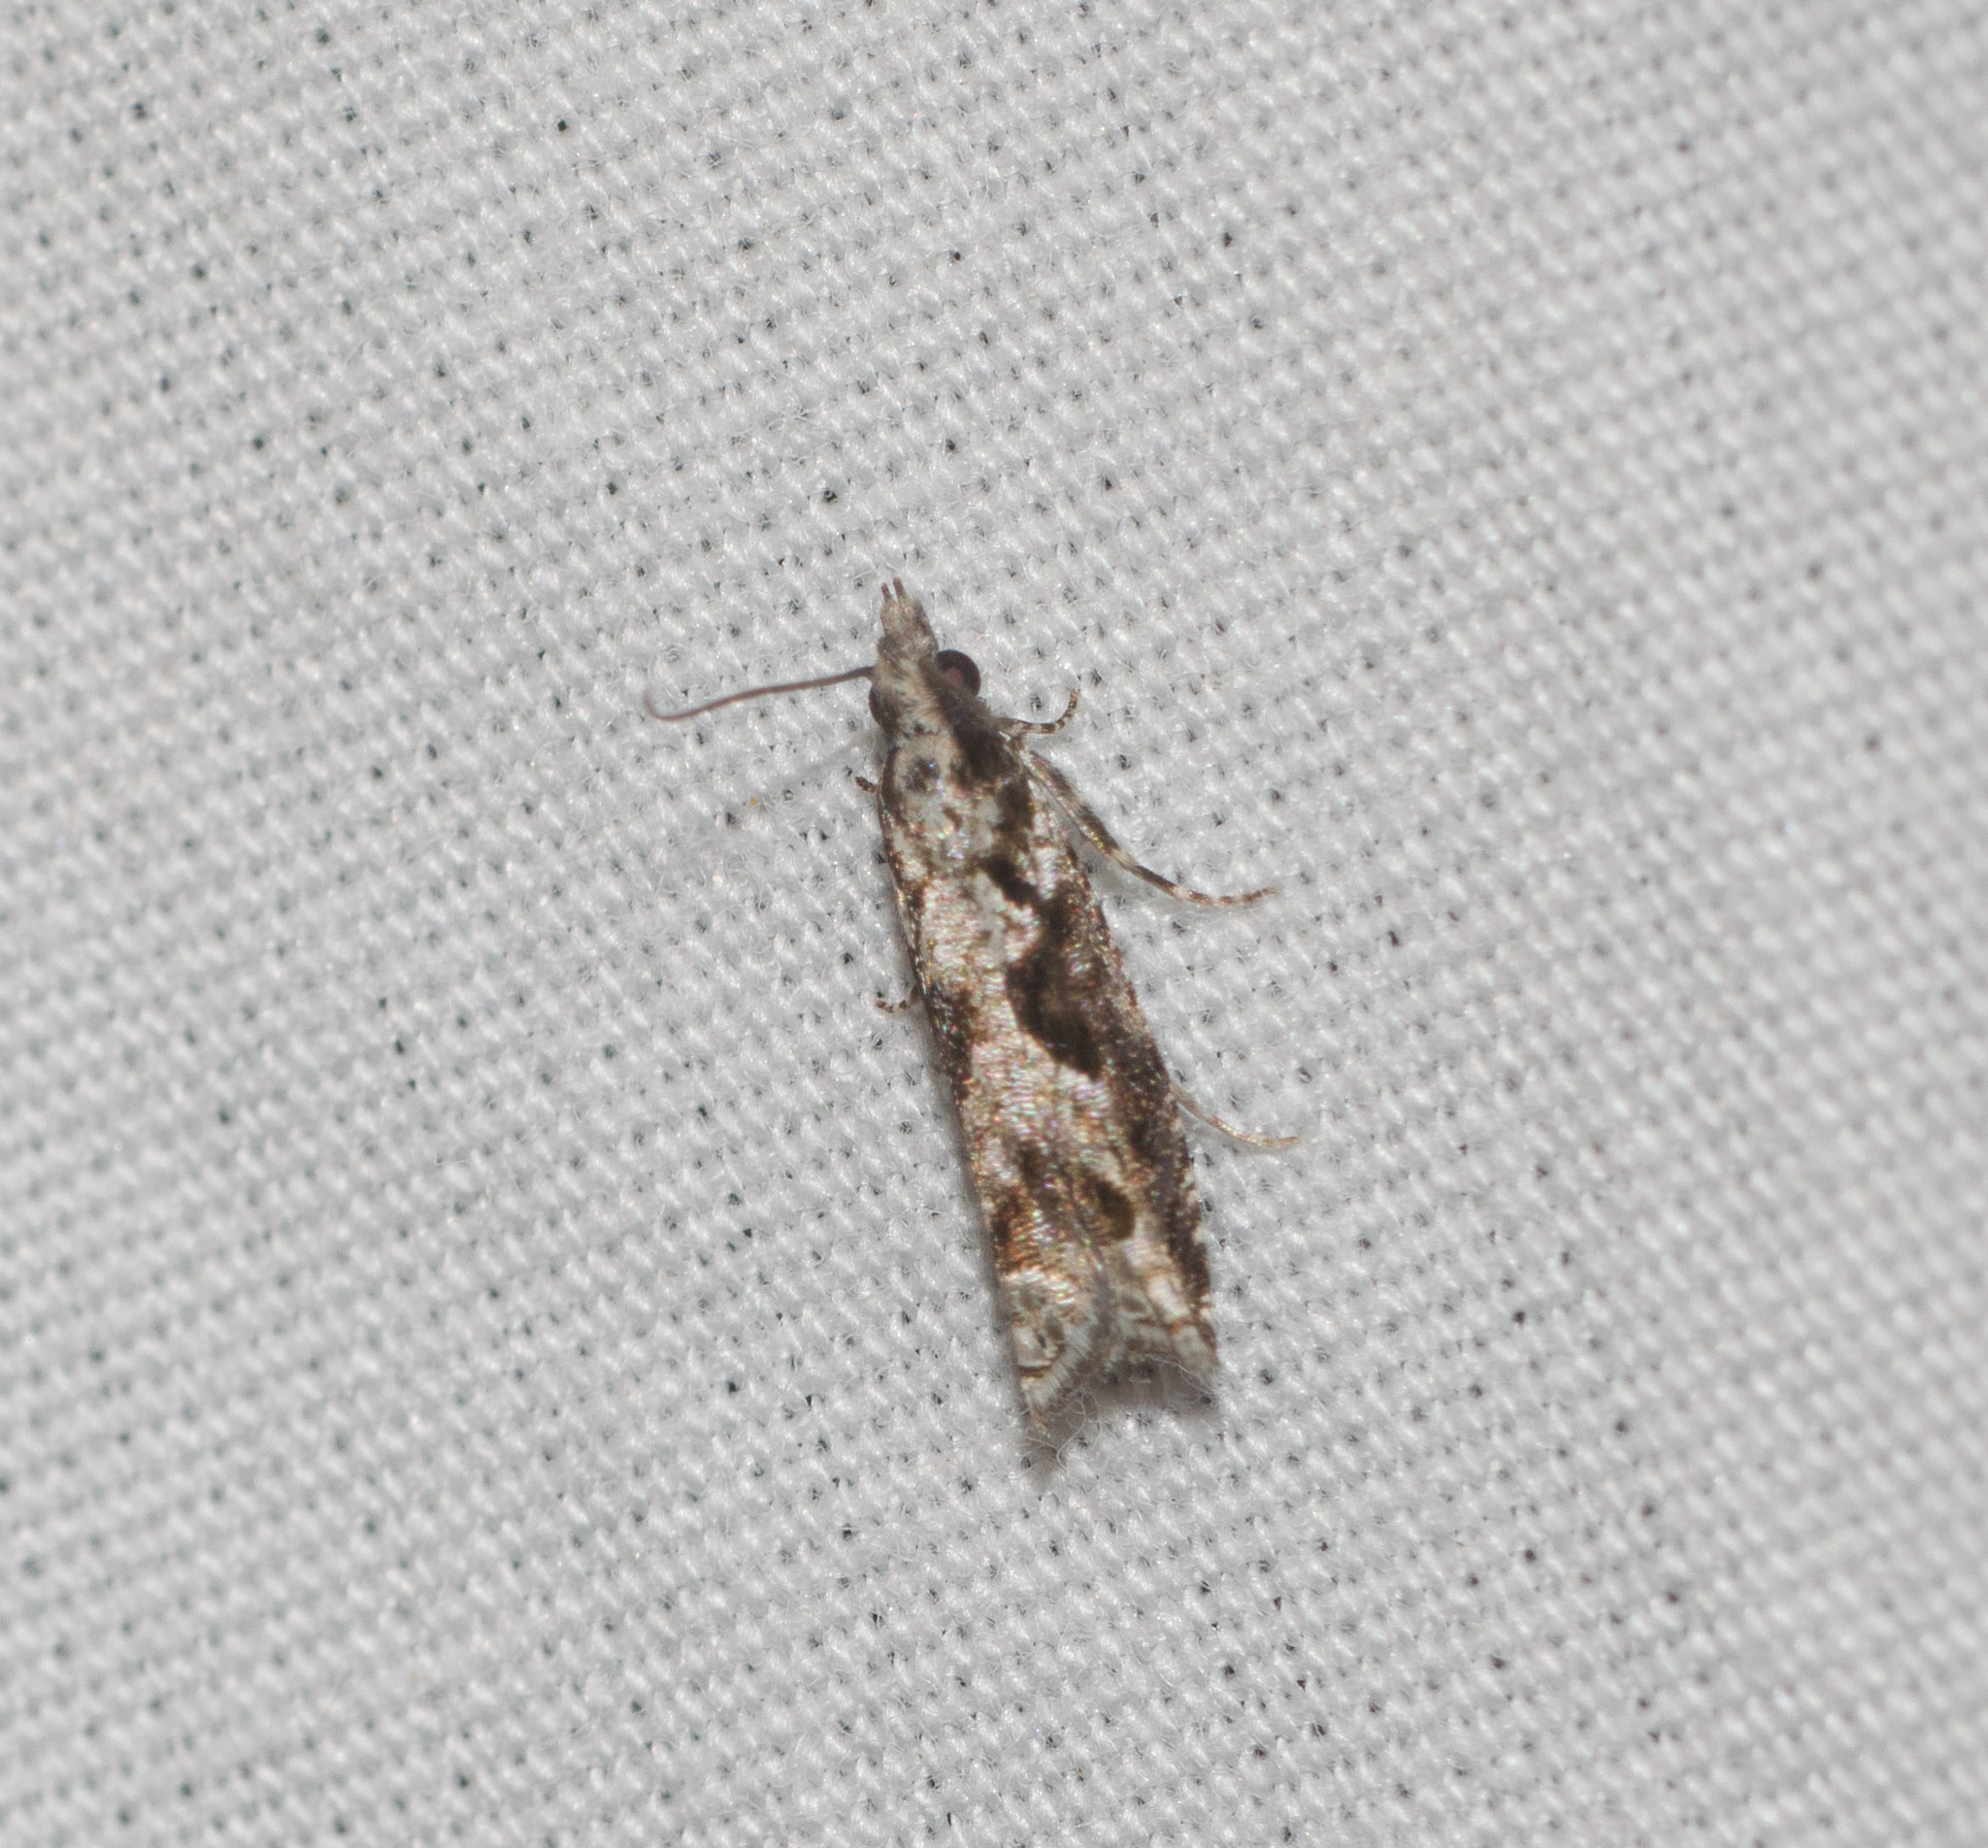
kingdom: Animalia
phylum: Arthropoda
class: Insecta
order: Lepidoptera
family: Tortricidae
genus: Eccoptocera
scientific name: Eccoptocera foetorivorans
